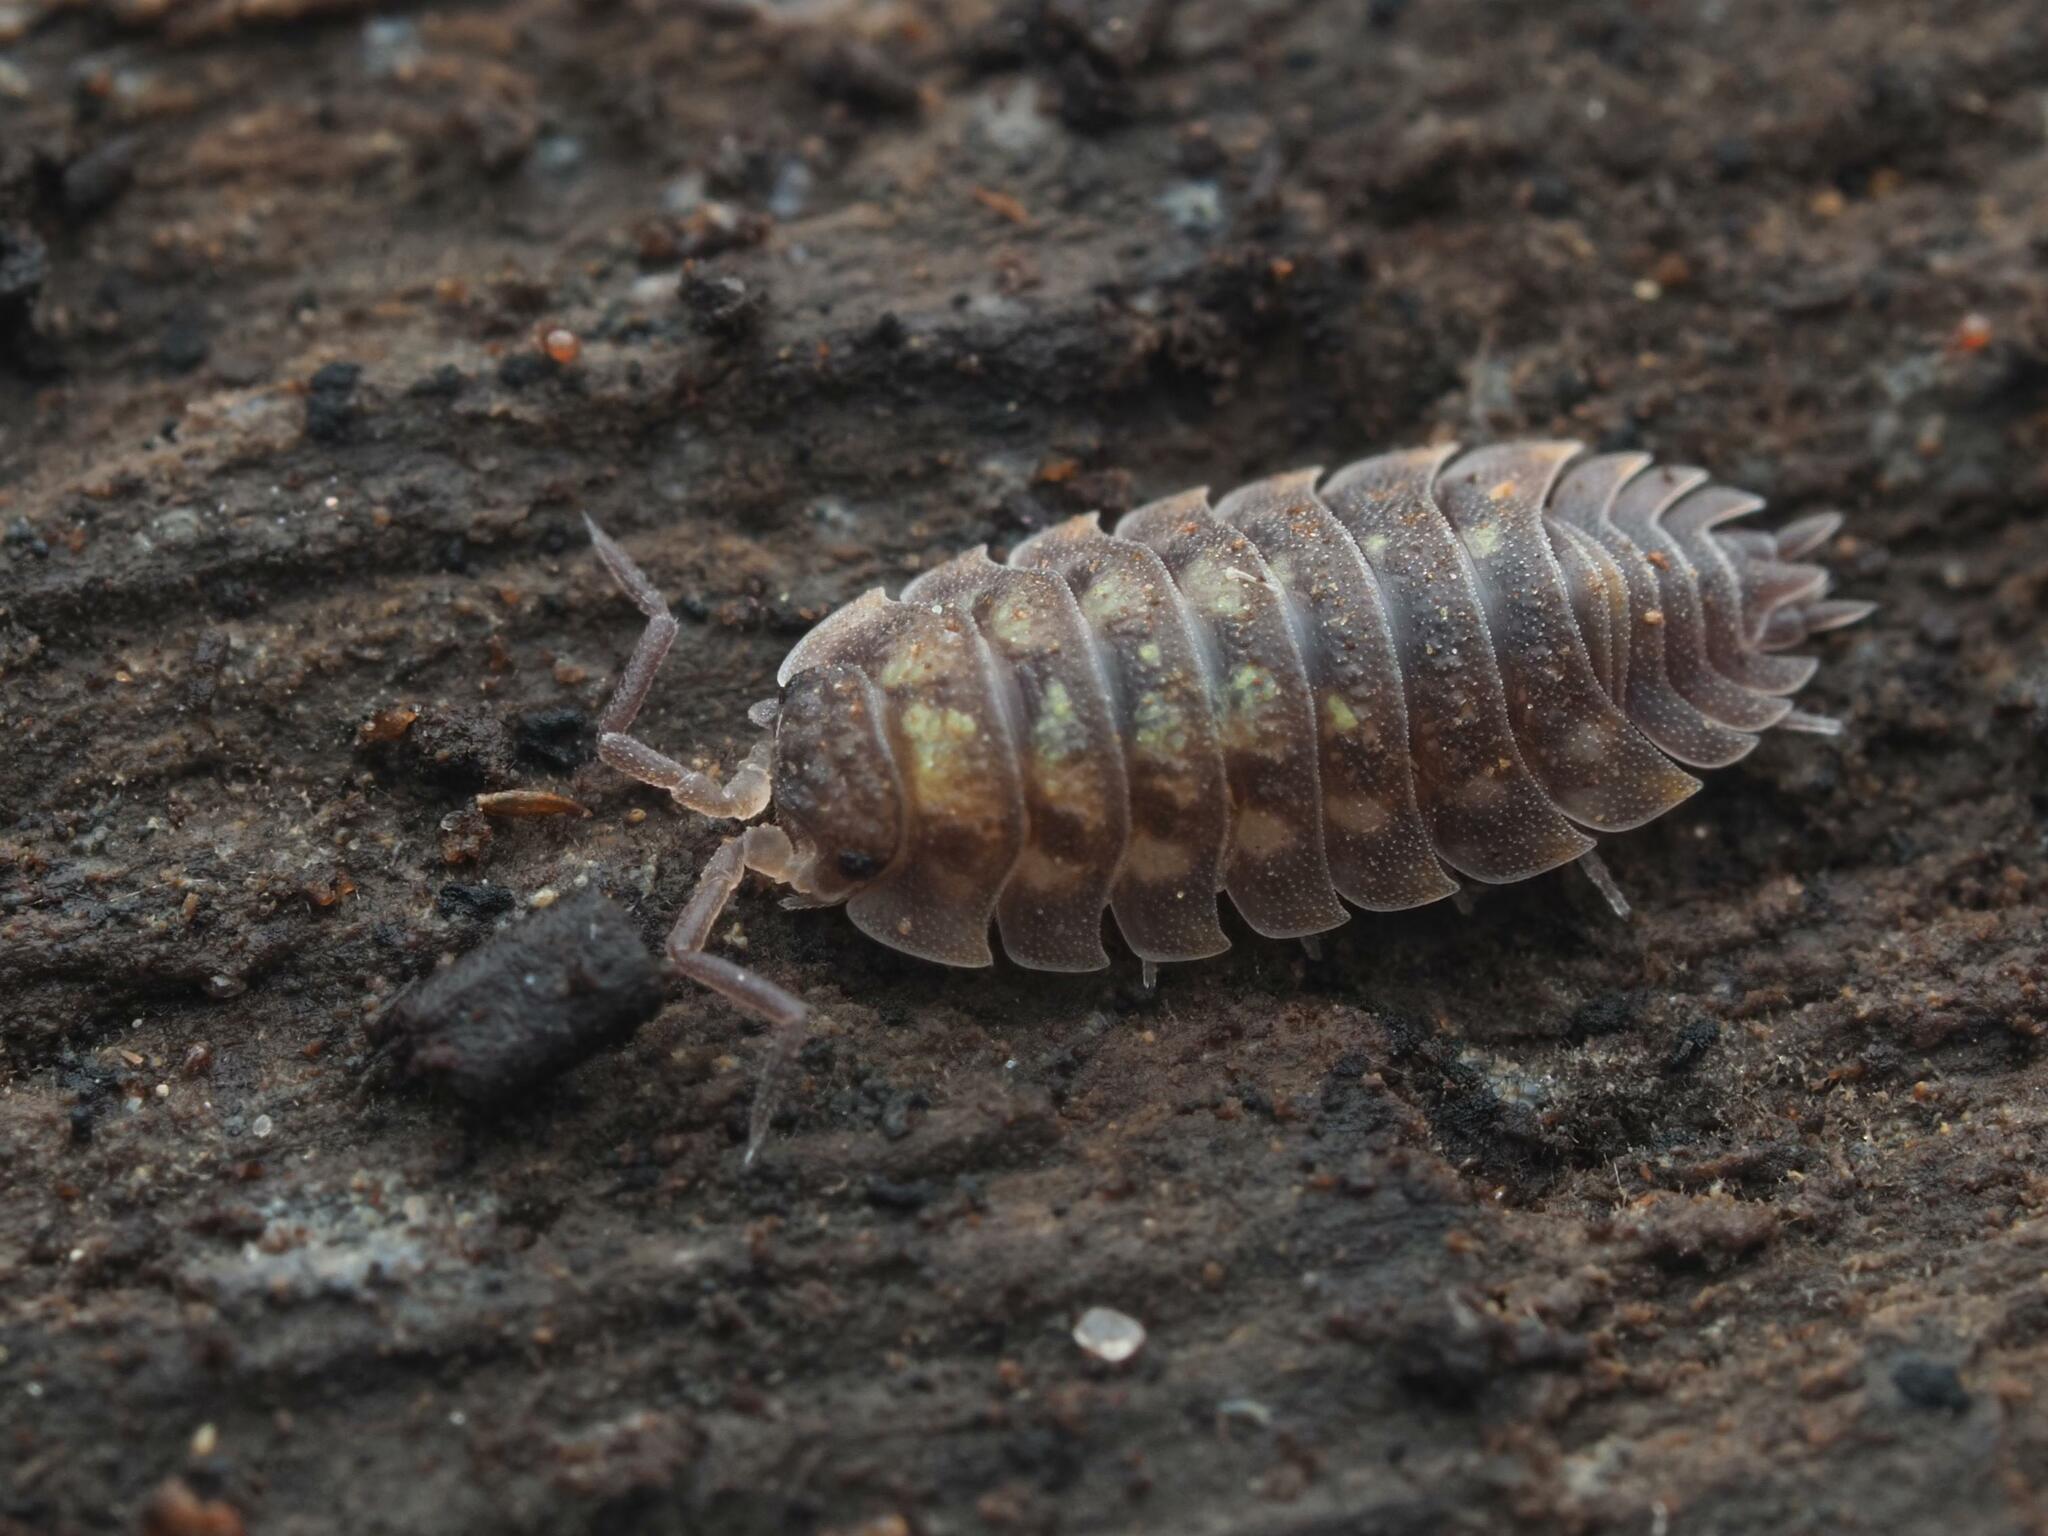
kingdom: Animalia
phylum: Arthropoda
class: Malacostraca
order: Isopoda
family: Oniscidae
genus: Oniscus
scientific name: Oniscus asellus
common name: Common shiny woodlouse
